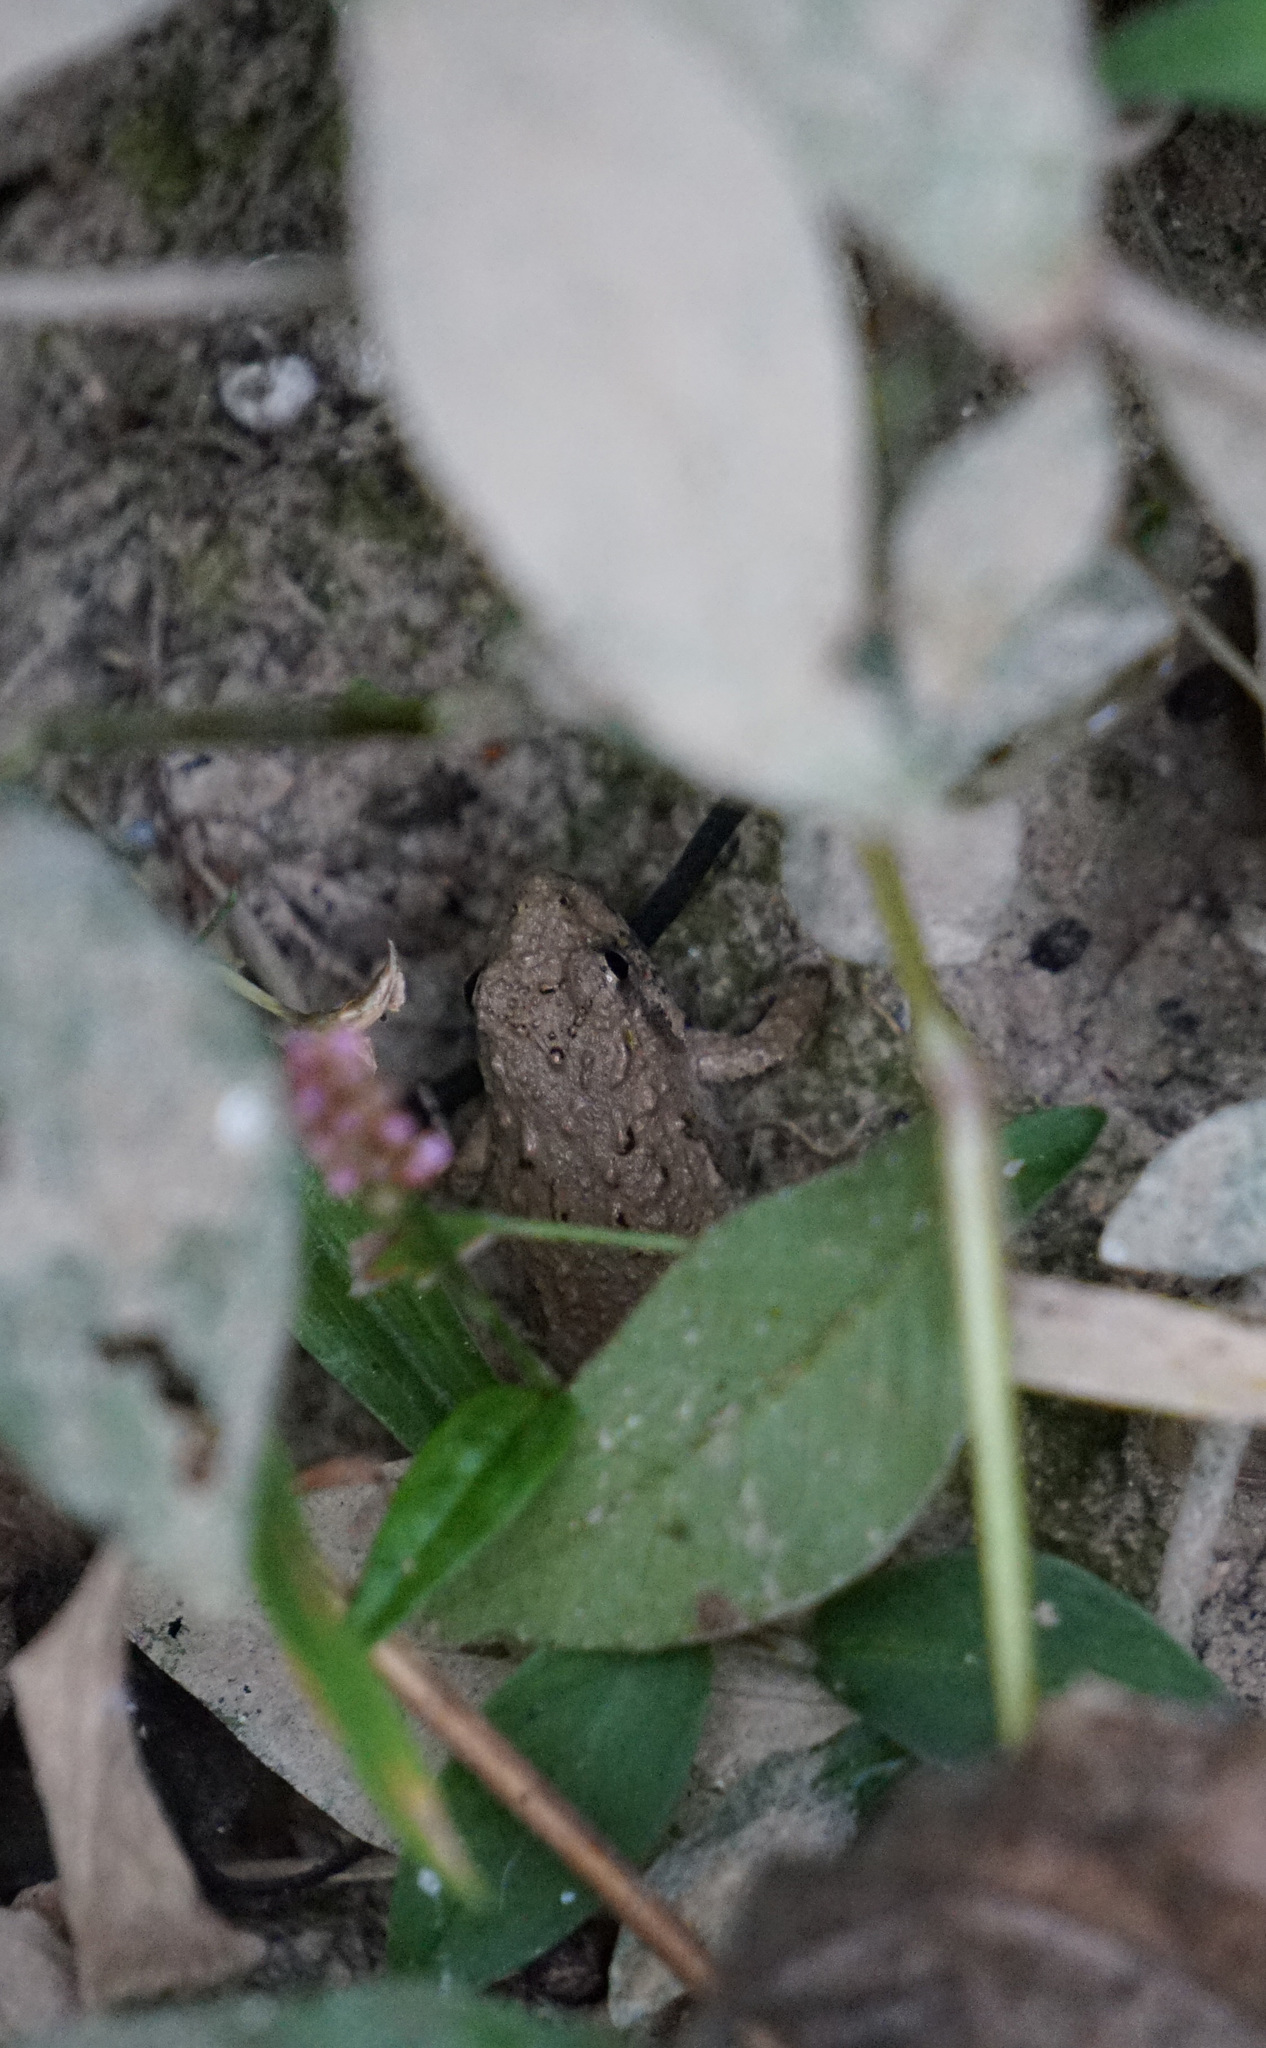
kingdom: Animalia
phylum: Chordata
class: Amphibia
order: Anura
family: Hylidae
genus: Acris
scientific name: Acris crepitans
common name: Northern cricket frog
